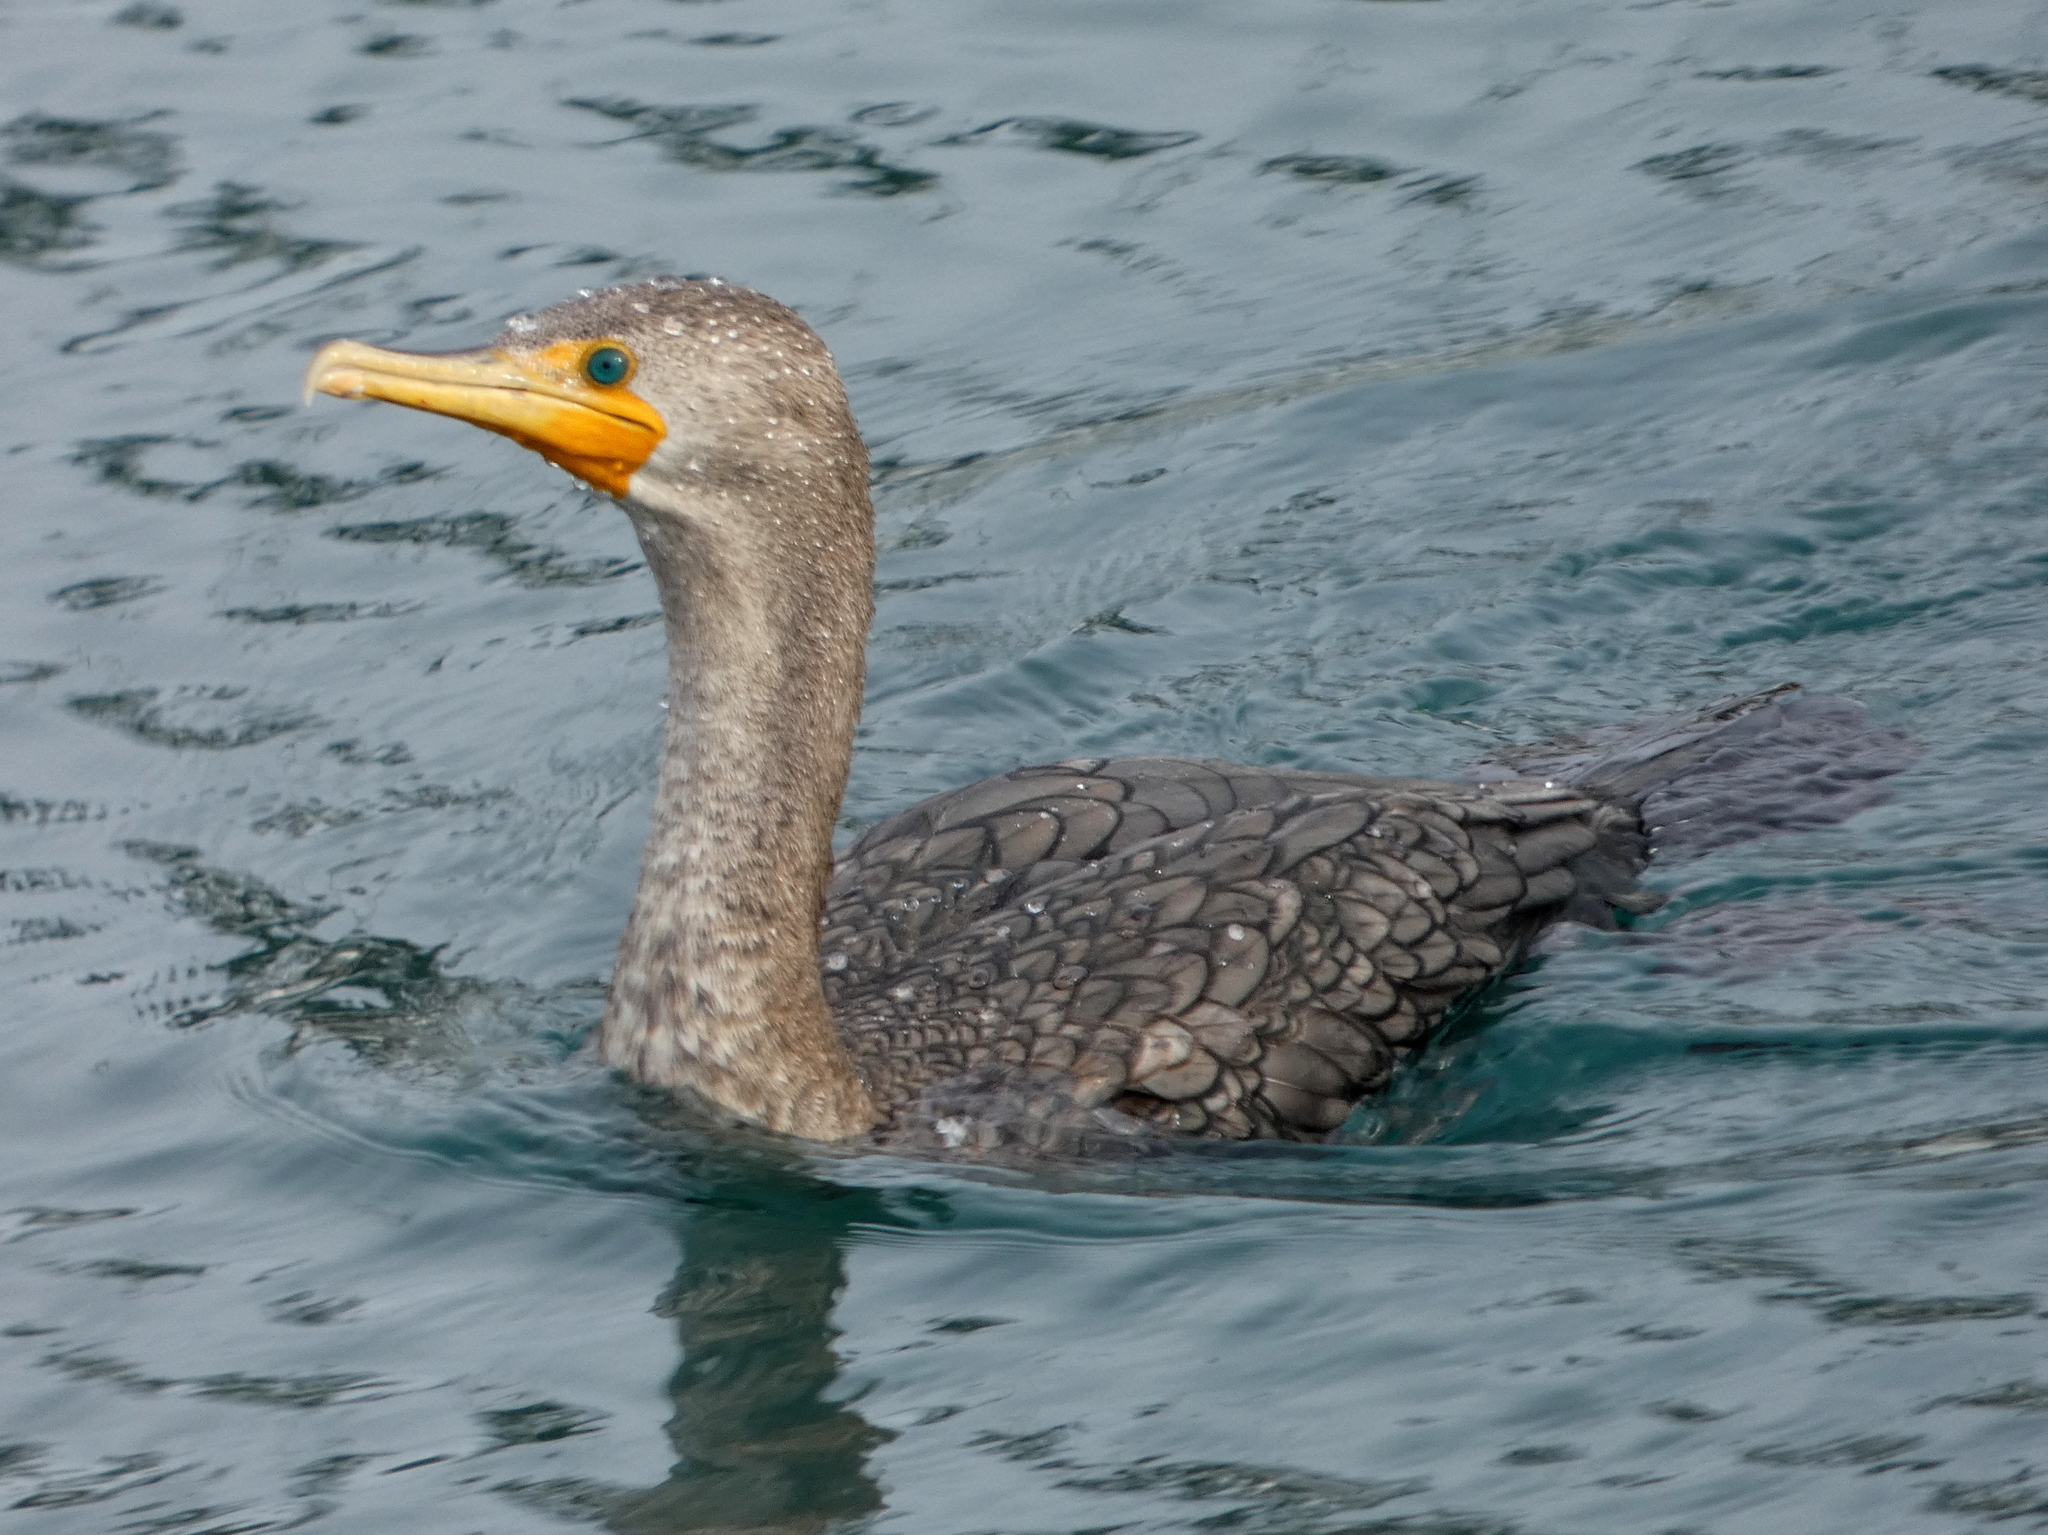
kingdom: Animalia
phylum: Chordata
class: Aves
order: Suliformes
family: Phalacrocoracidae
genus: Phalacrocorax
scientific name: Phalacrocorax auritus
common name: Double-crested cormorant
